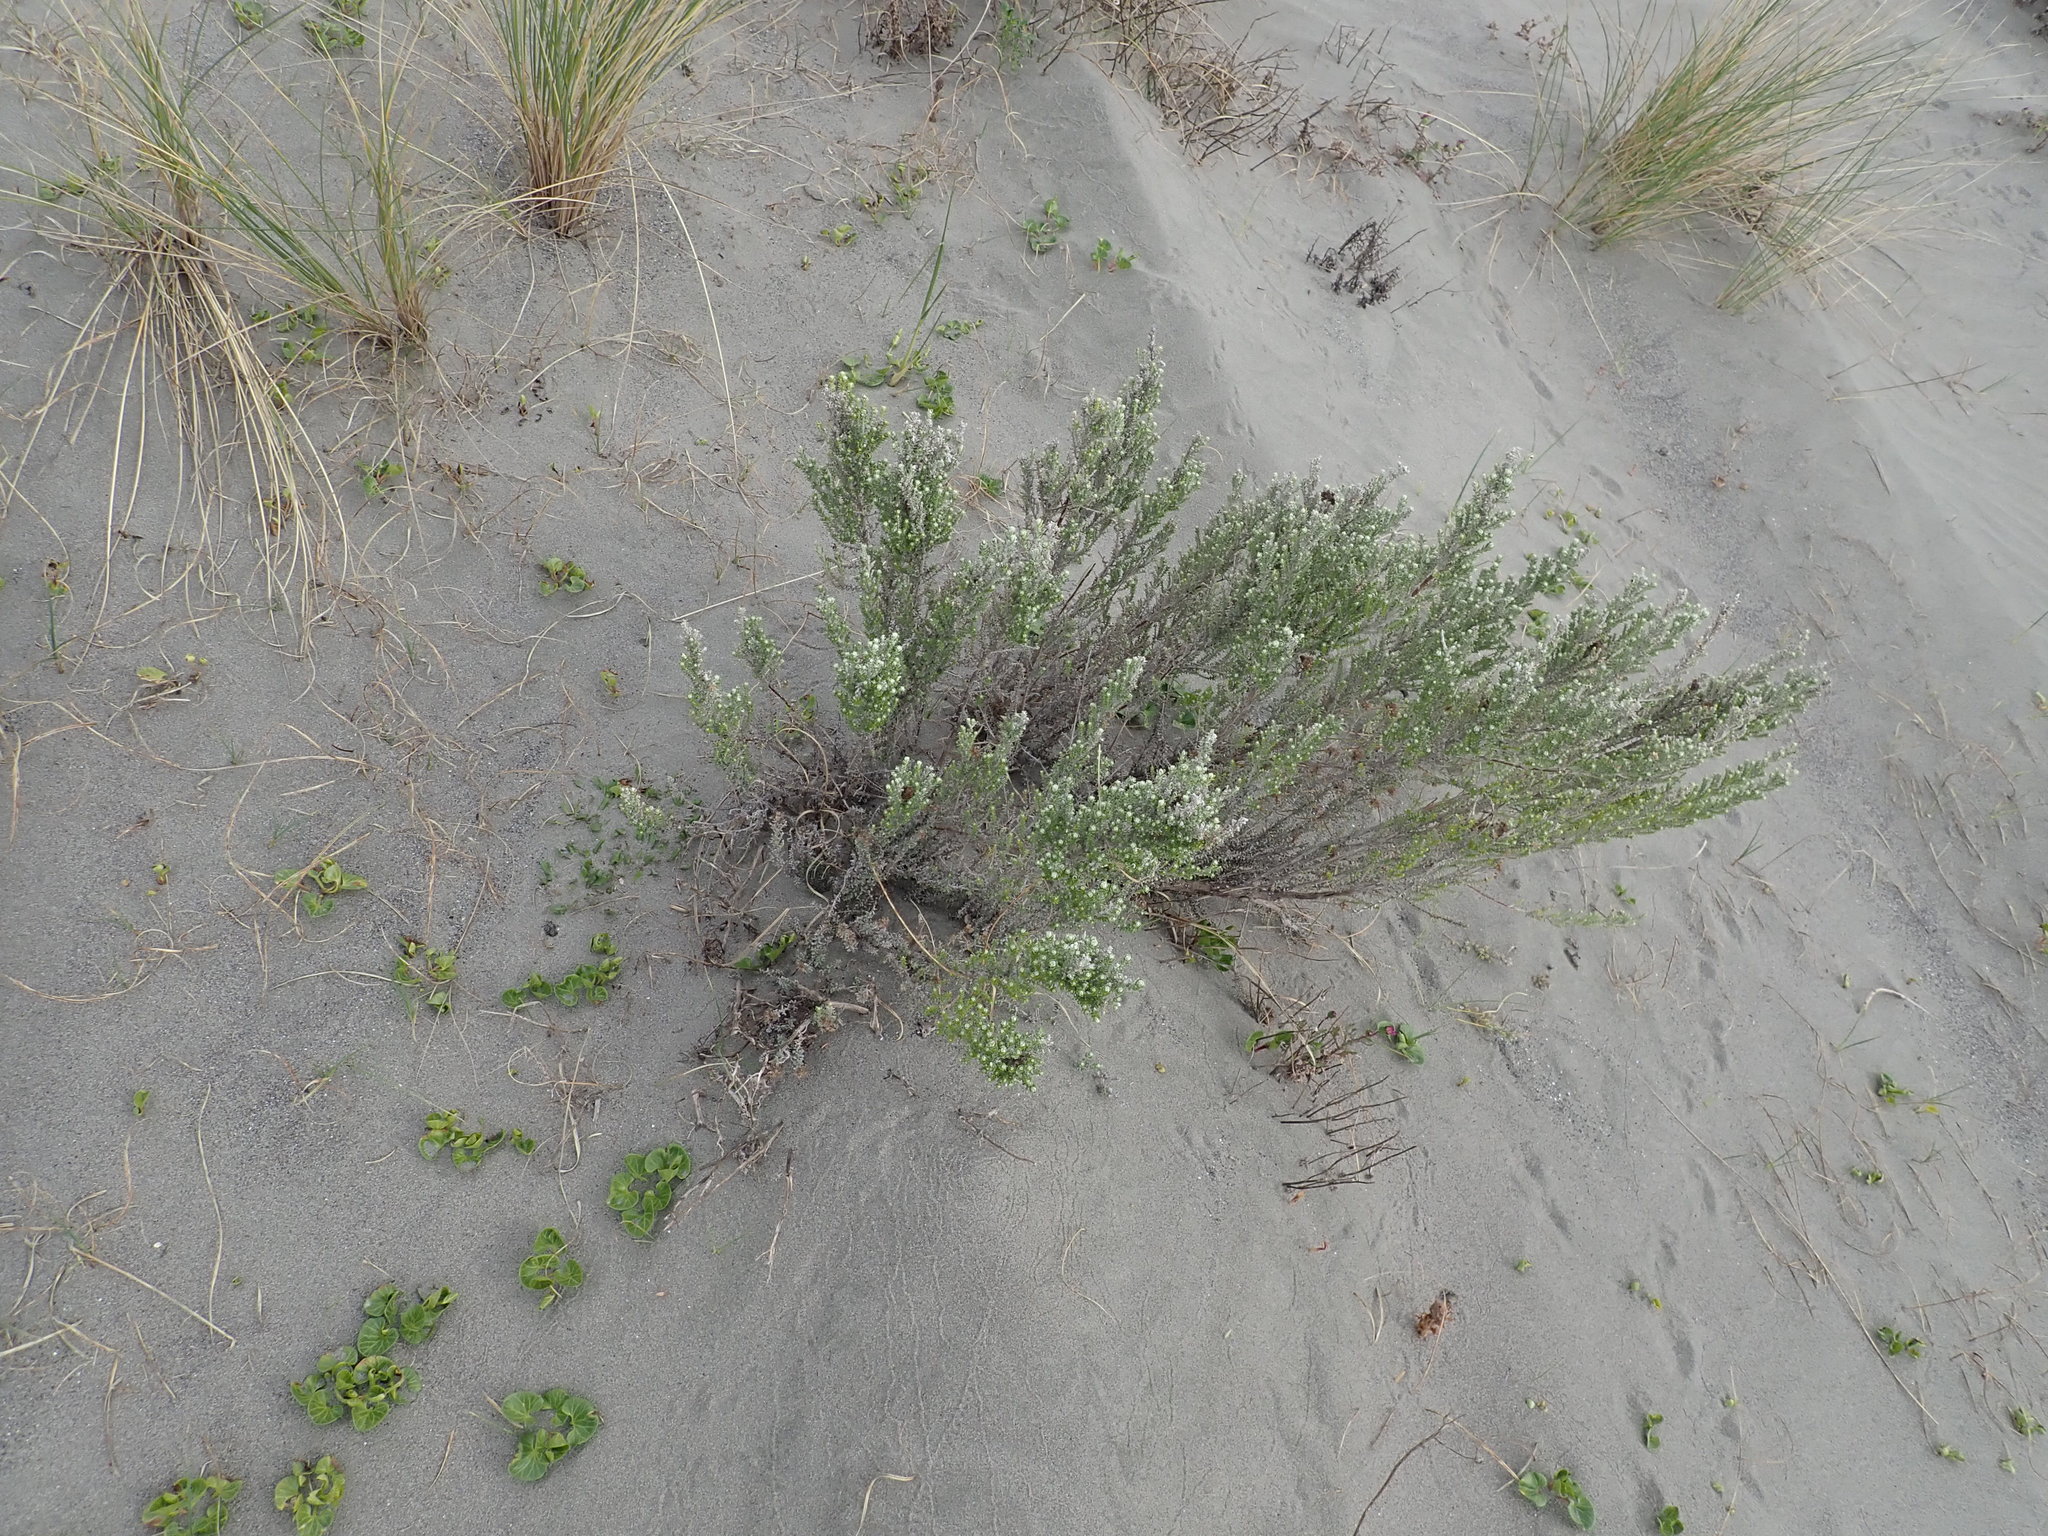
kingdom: Plantae
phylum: Tracheophyta
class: Magnoliopsida
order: Asterales
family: Asteraceae
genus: Ozothamnus
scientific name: Ozothamnus leptophyllus
